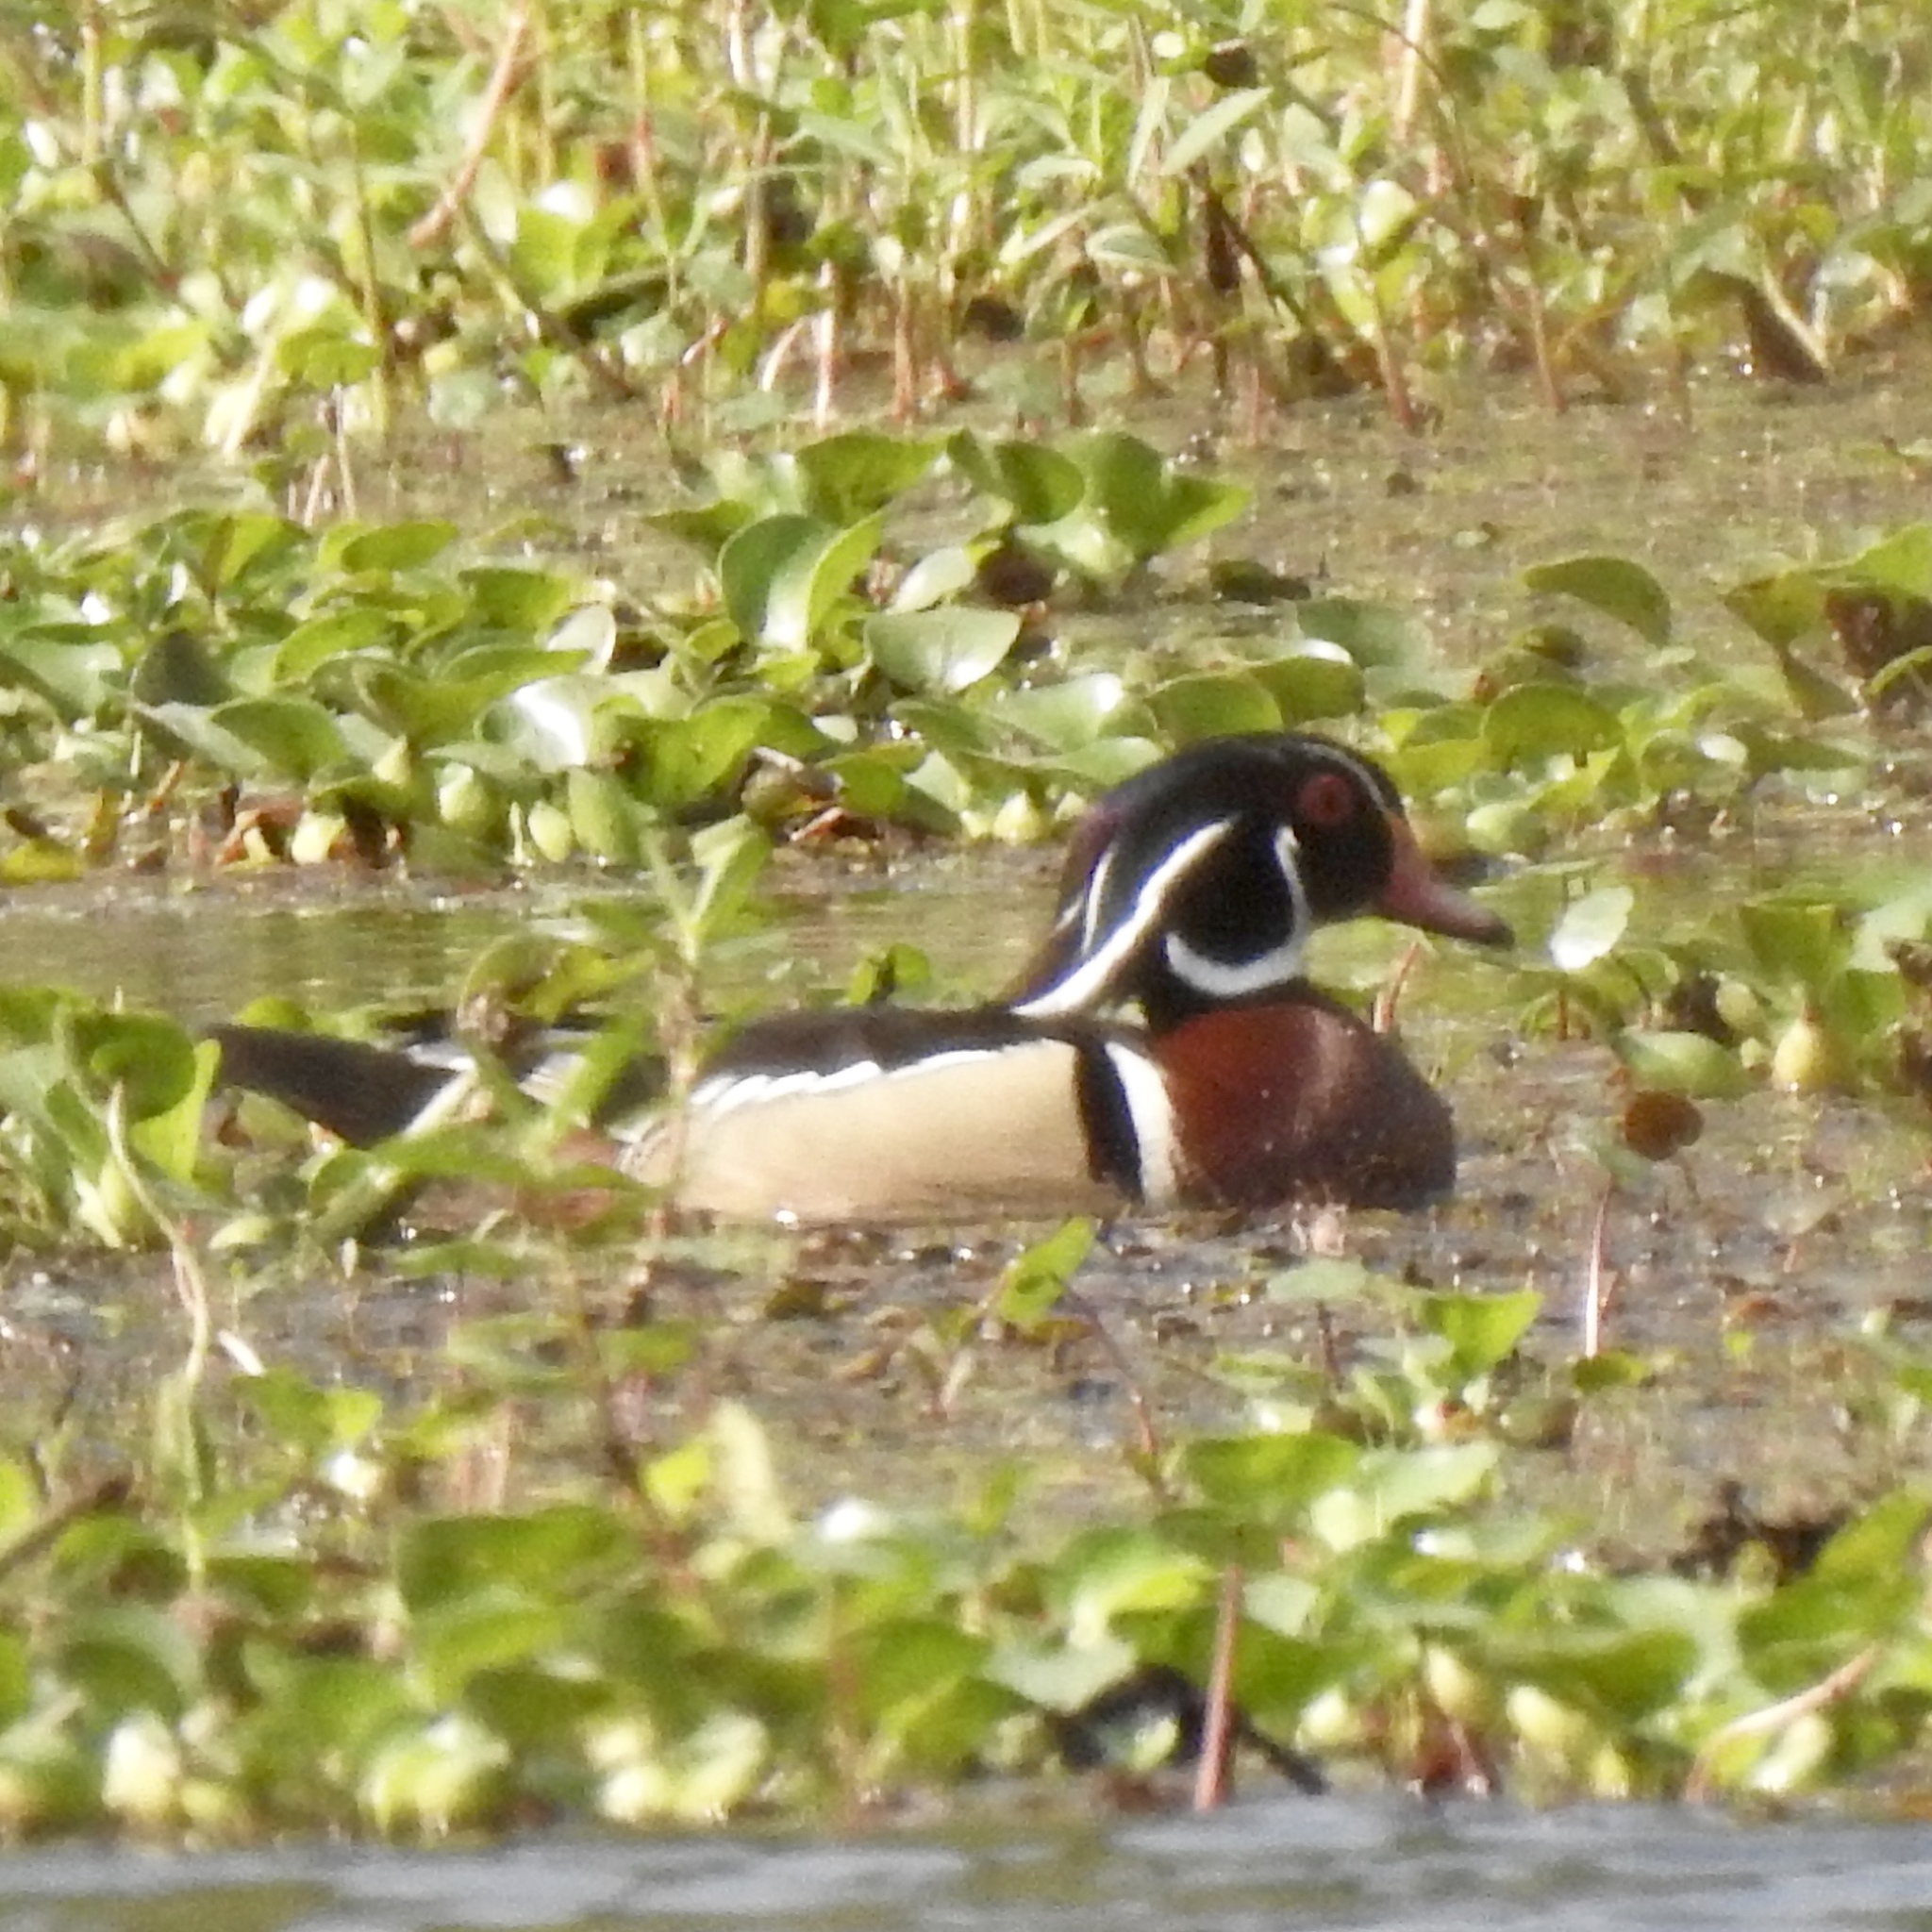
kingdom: Animalia
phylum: Chordata
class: Aves
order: Anseriformes
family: Anatidae
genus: Aix
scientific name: Aix sponsa
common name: Wood duck
